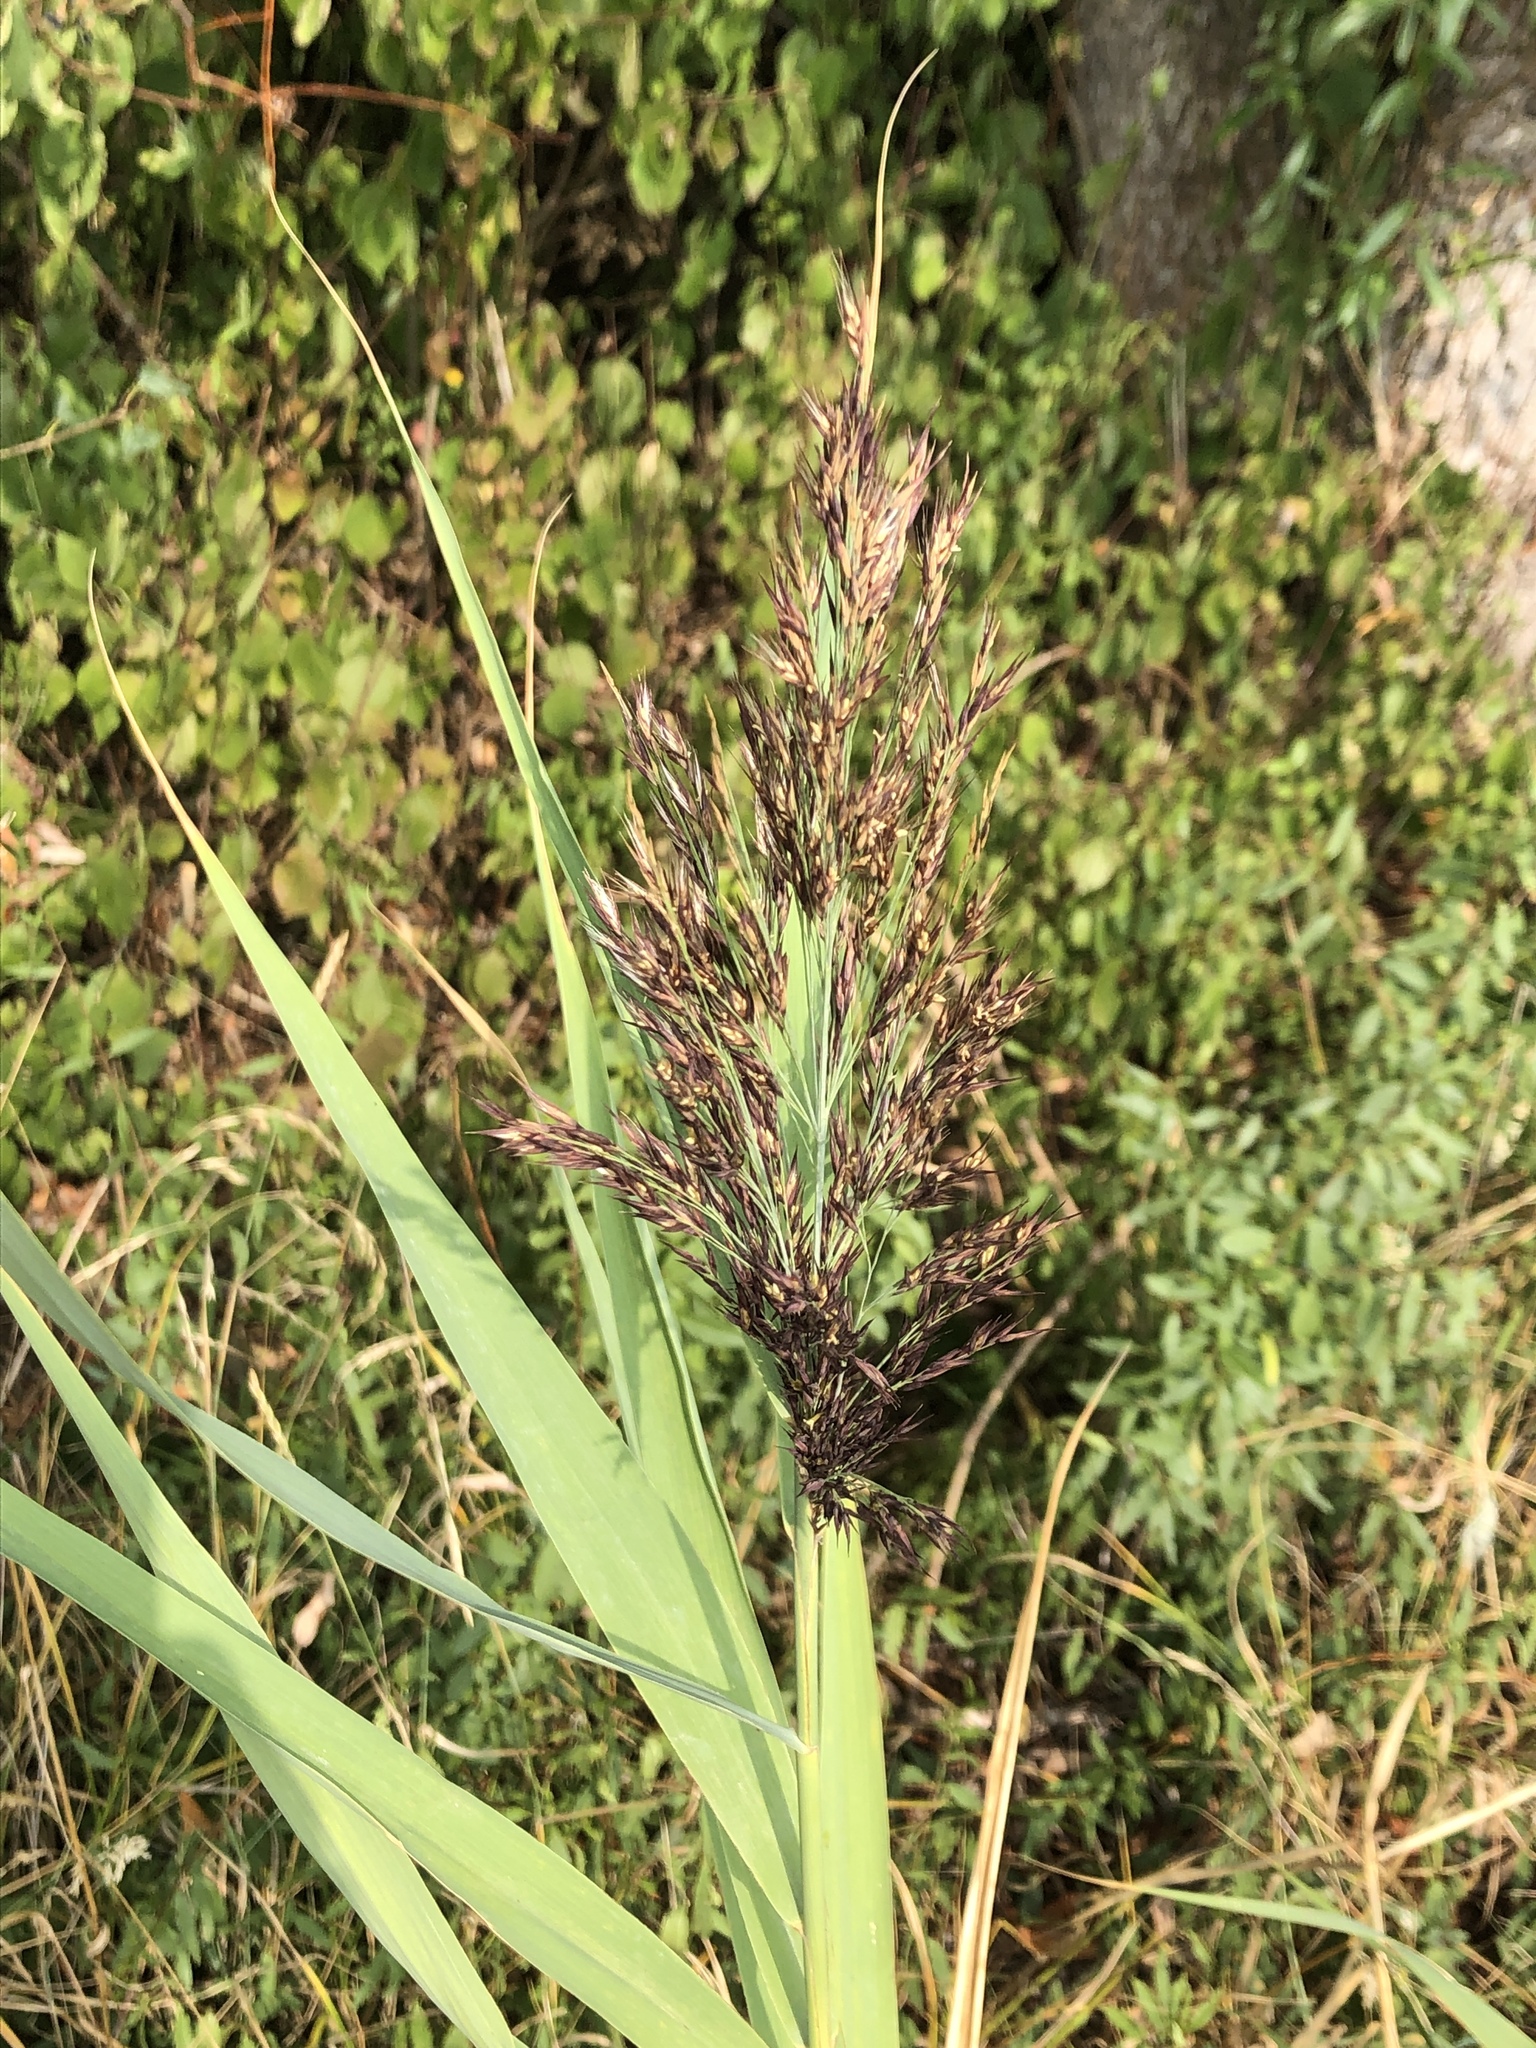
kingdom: Plantae
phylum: Tracheophyta
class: Liliopsida
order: Poales
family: Poaceae
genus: Phragmites
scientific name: Phragmites australis
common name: Common reed
